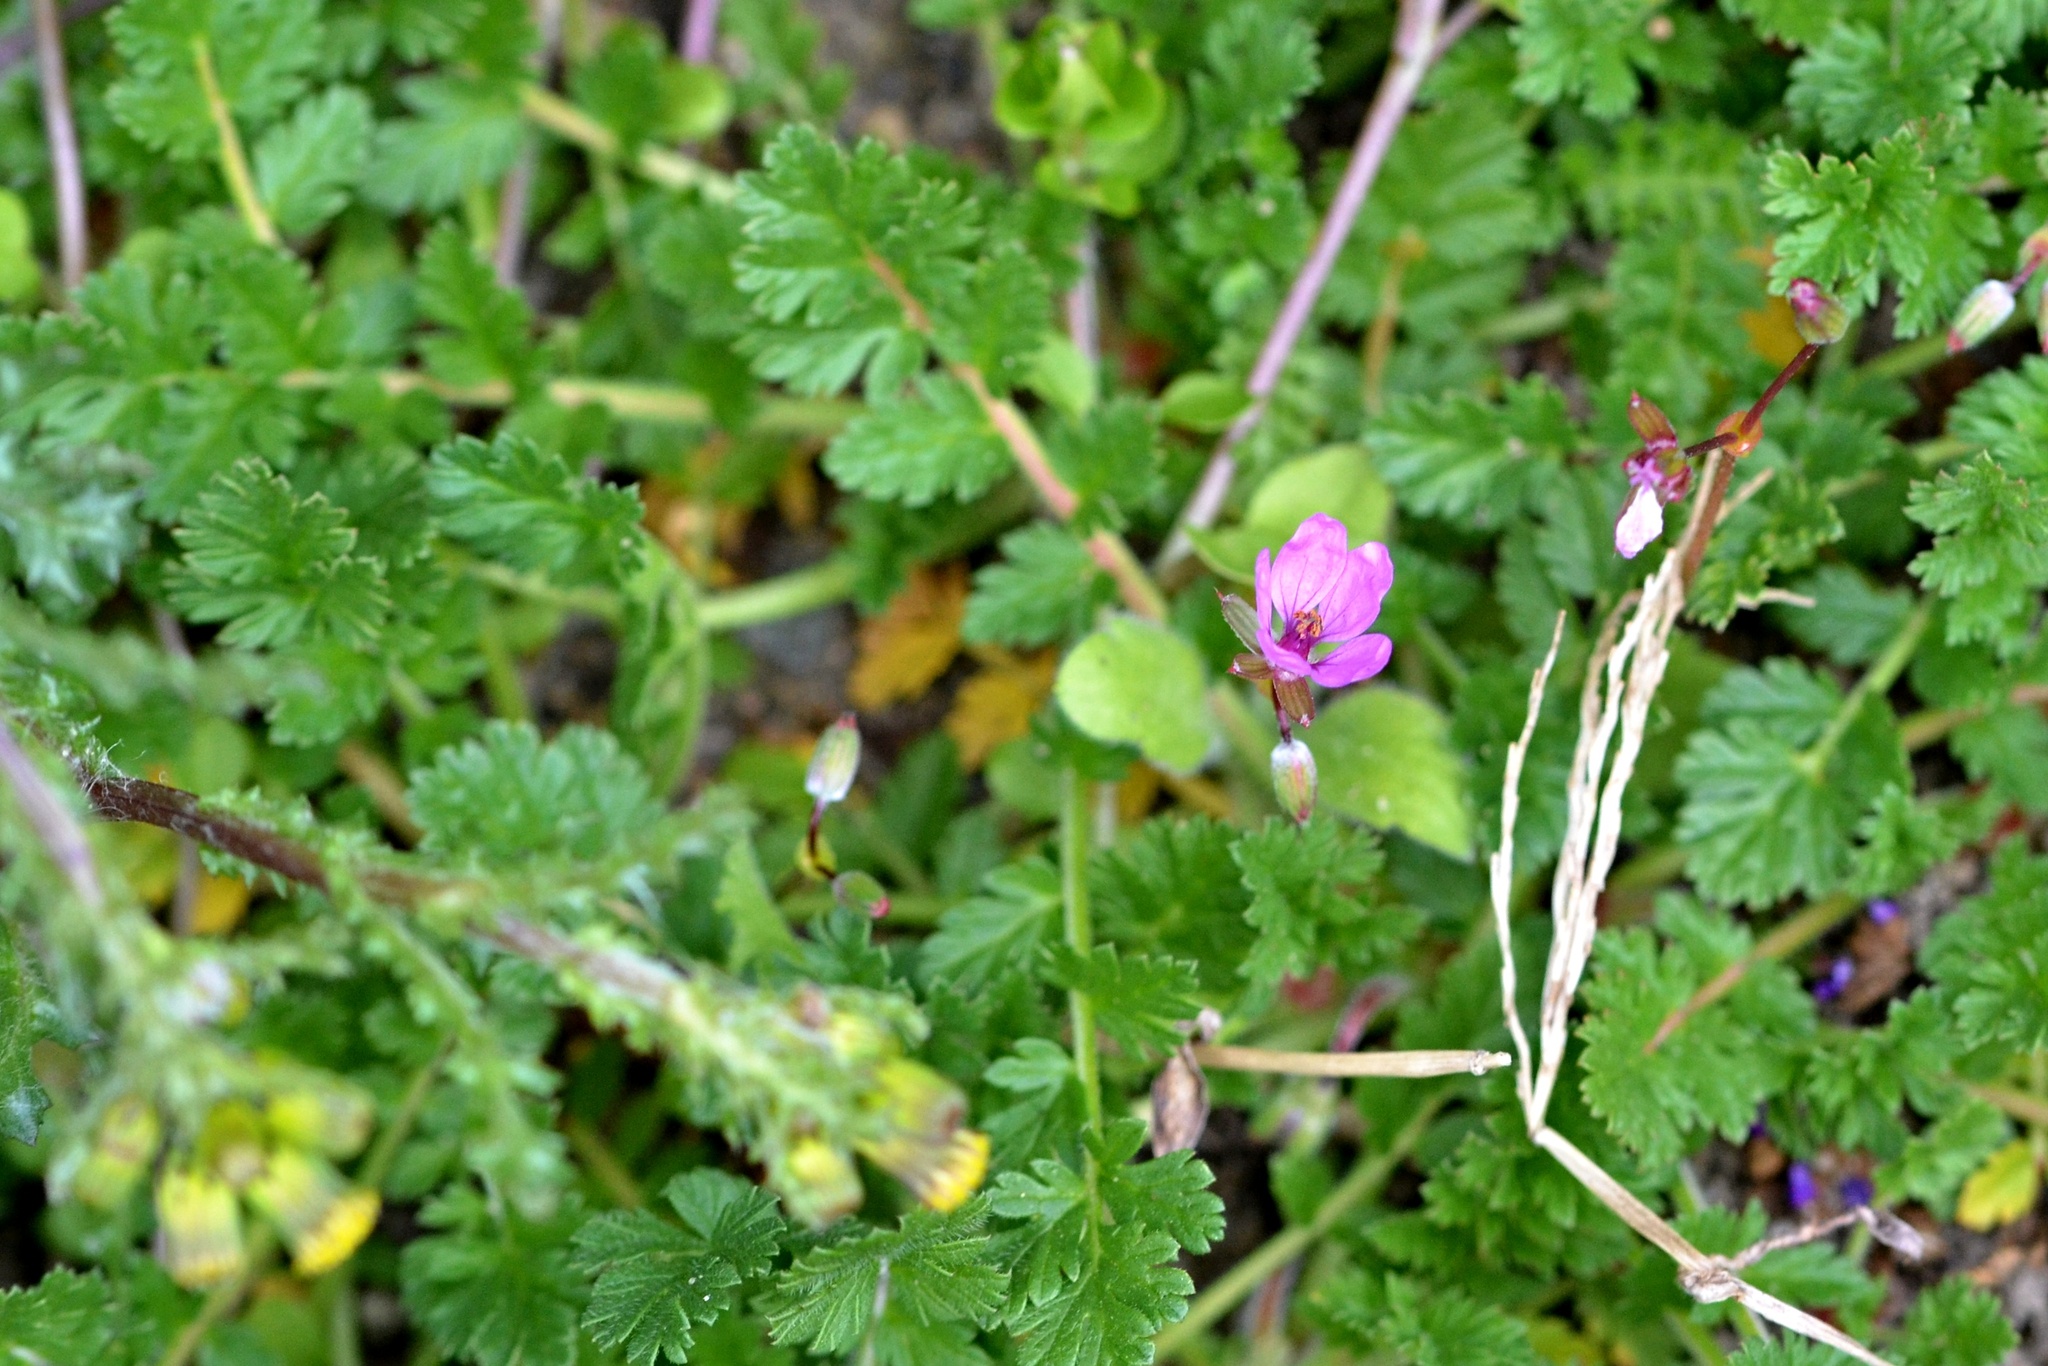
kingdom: Plantae
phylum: Tracheophyta
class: Magnoliopsida
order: Geraniales
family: Geraniaceae
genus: Erodium
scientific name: Erodium cicutarium
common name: Common stork's-bill
